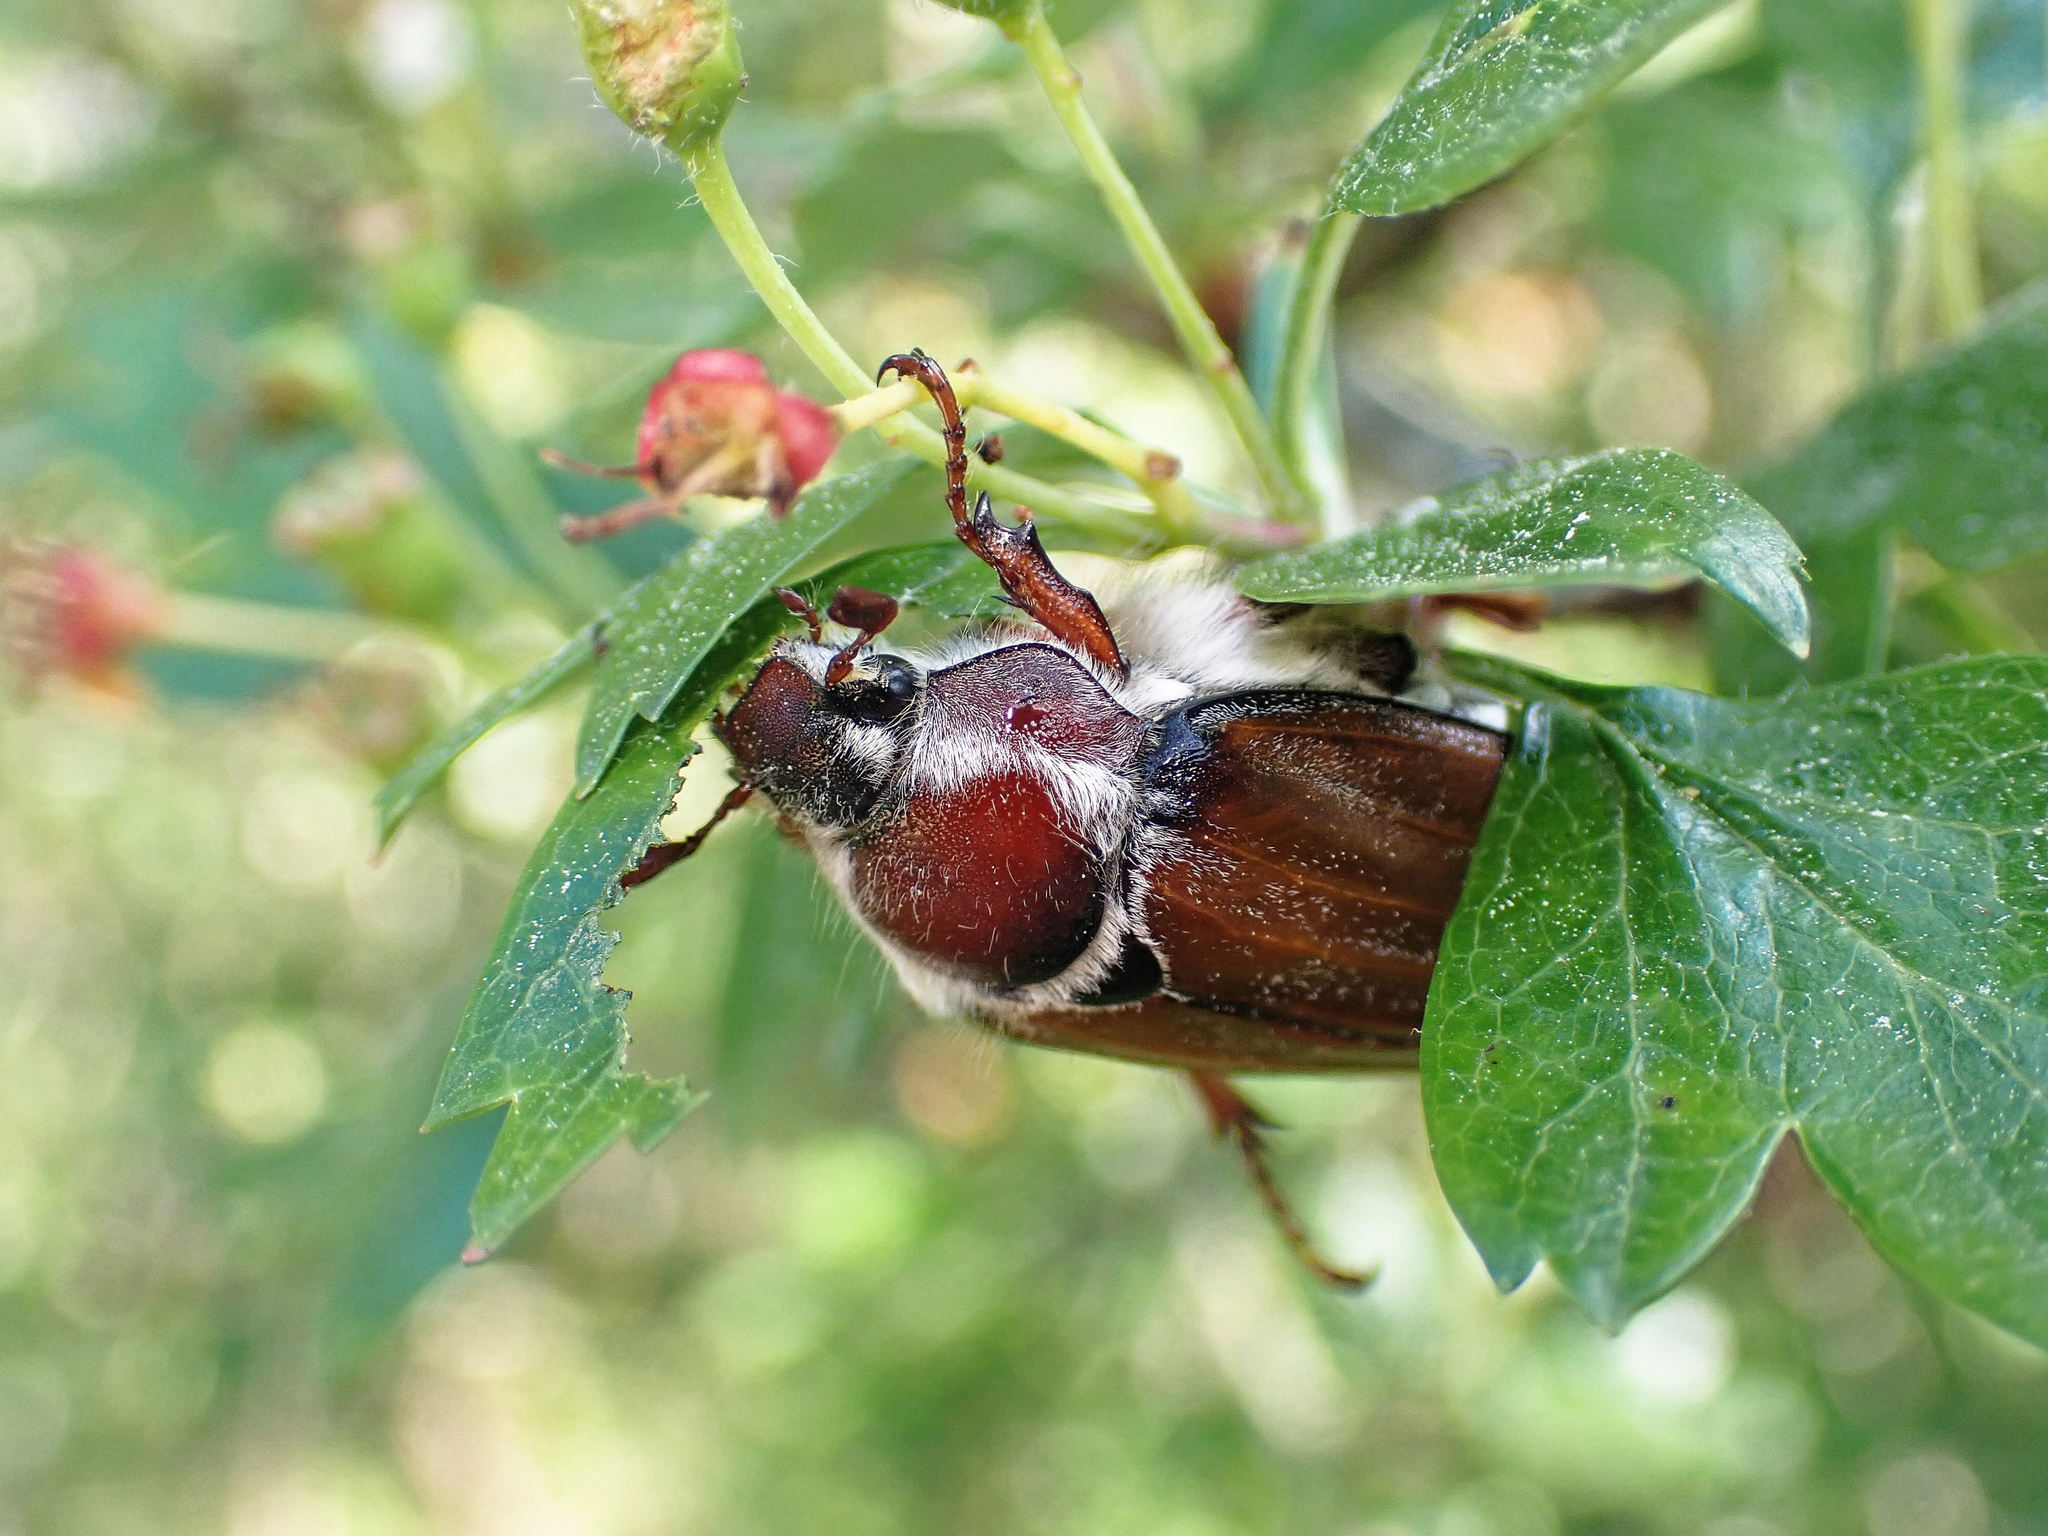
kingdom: Animalia
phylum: Arthropoda
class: Insecta
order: Coleoptera
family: Scarabaeidae
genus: Melolontha
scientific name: Melolontha hippocastani
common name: Chestnut cockchafer
